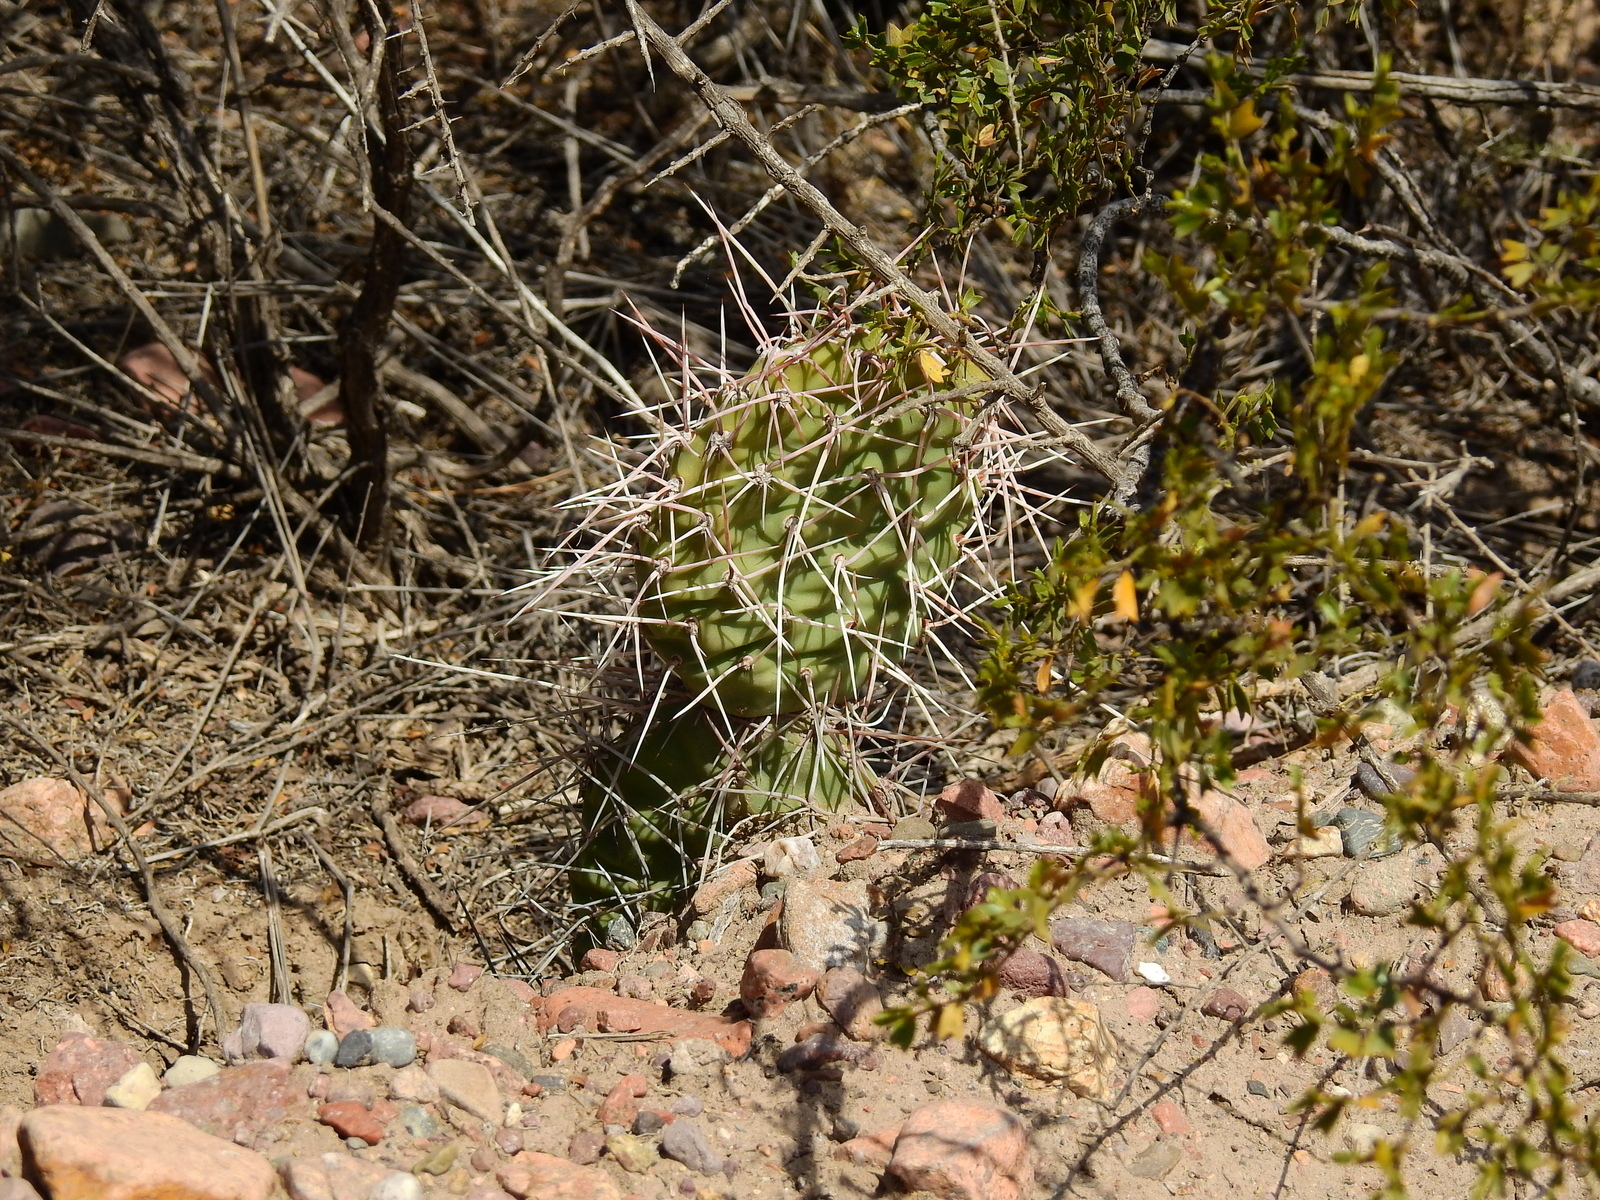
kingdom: Plantae
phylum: Tracheophyta
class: Magnoliopsida
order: Caryophyllales
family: Cactaceae
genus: Opuntia
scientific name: Opuntia sulphurea
